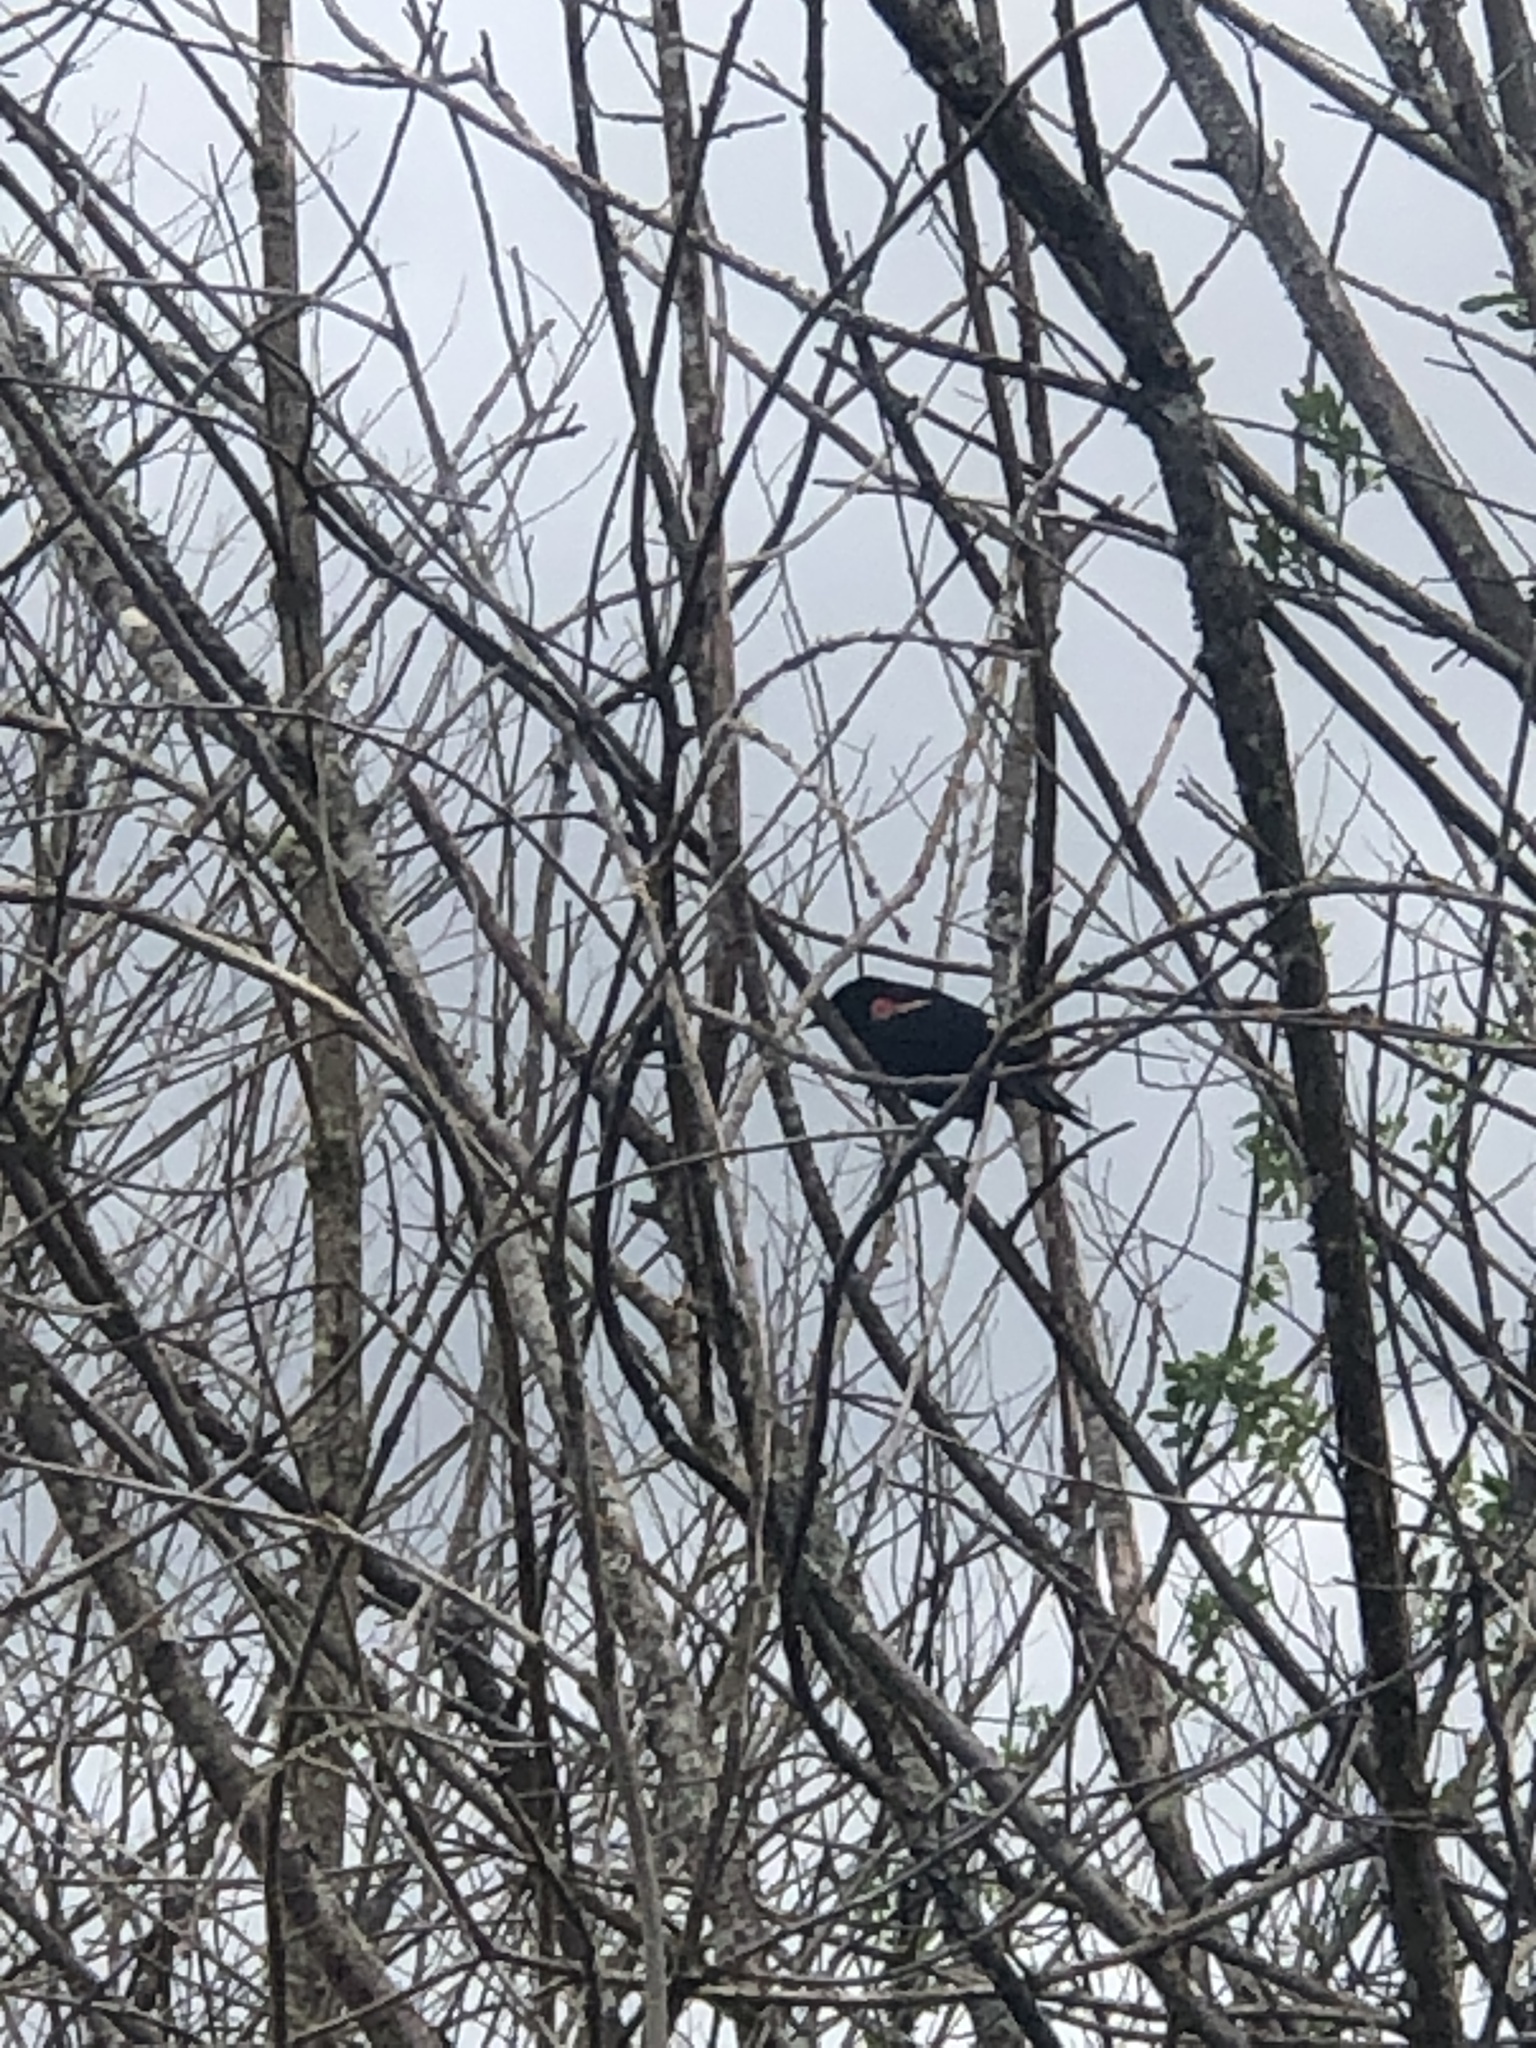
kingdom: Animalia
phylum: Chordata
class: Aves
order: Passeriformes
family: Icteridae
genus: Agelaius
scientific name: Agelaius phoeniceus
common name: Red-winged blackbird
